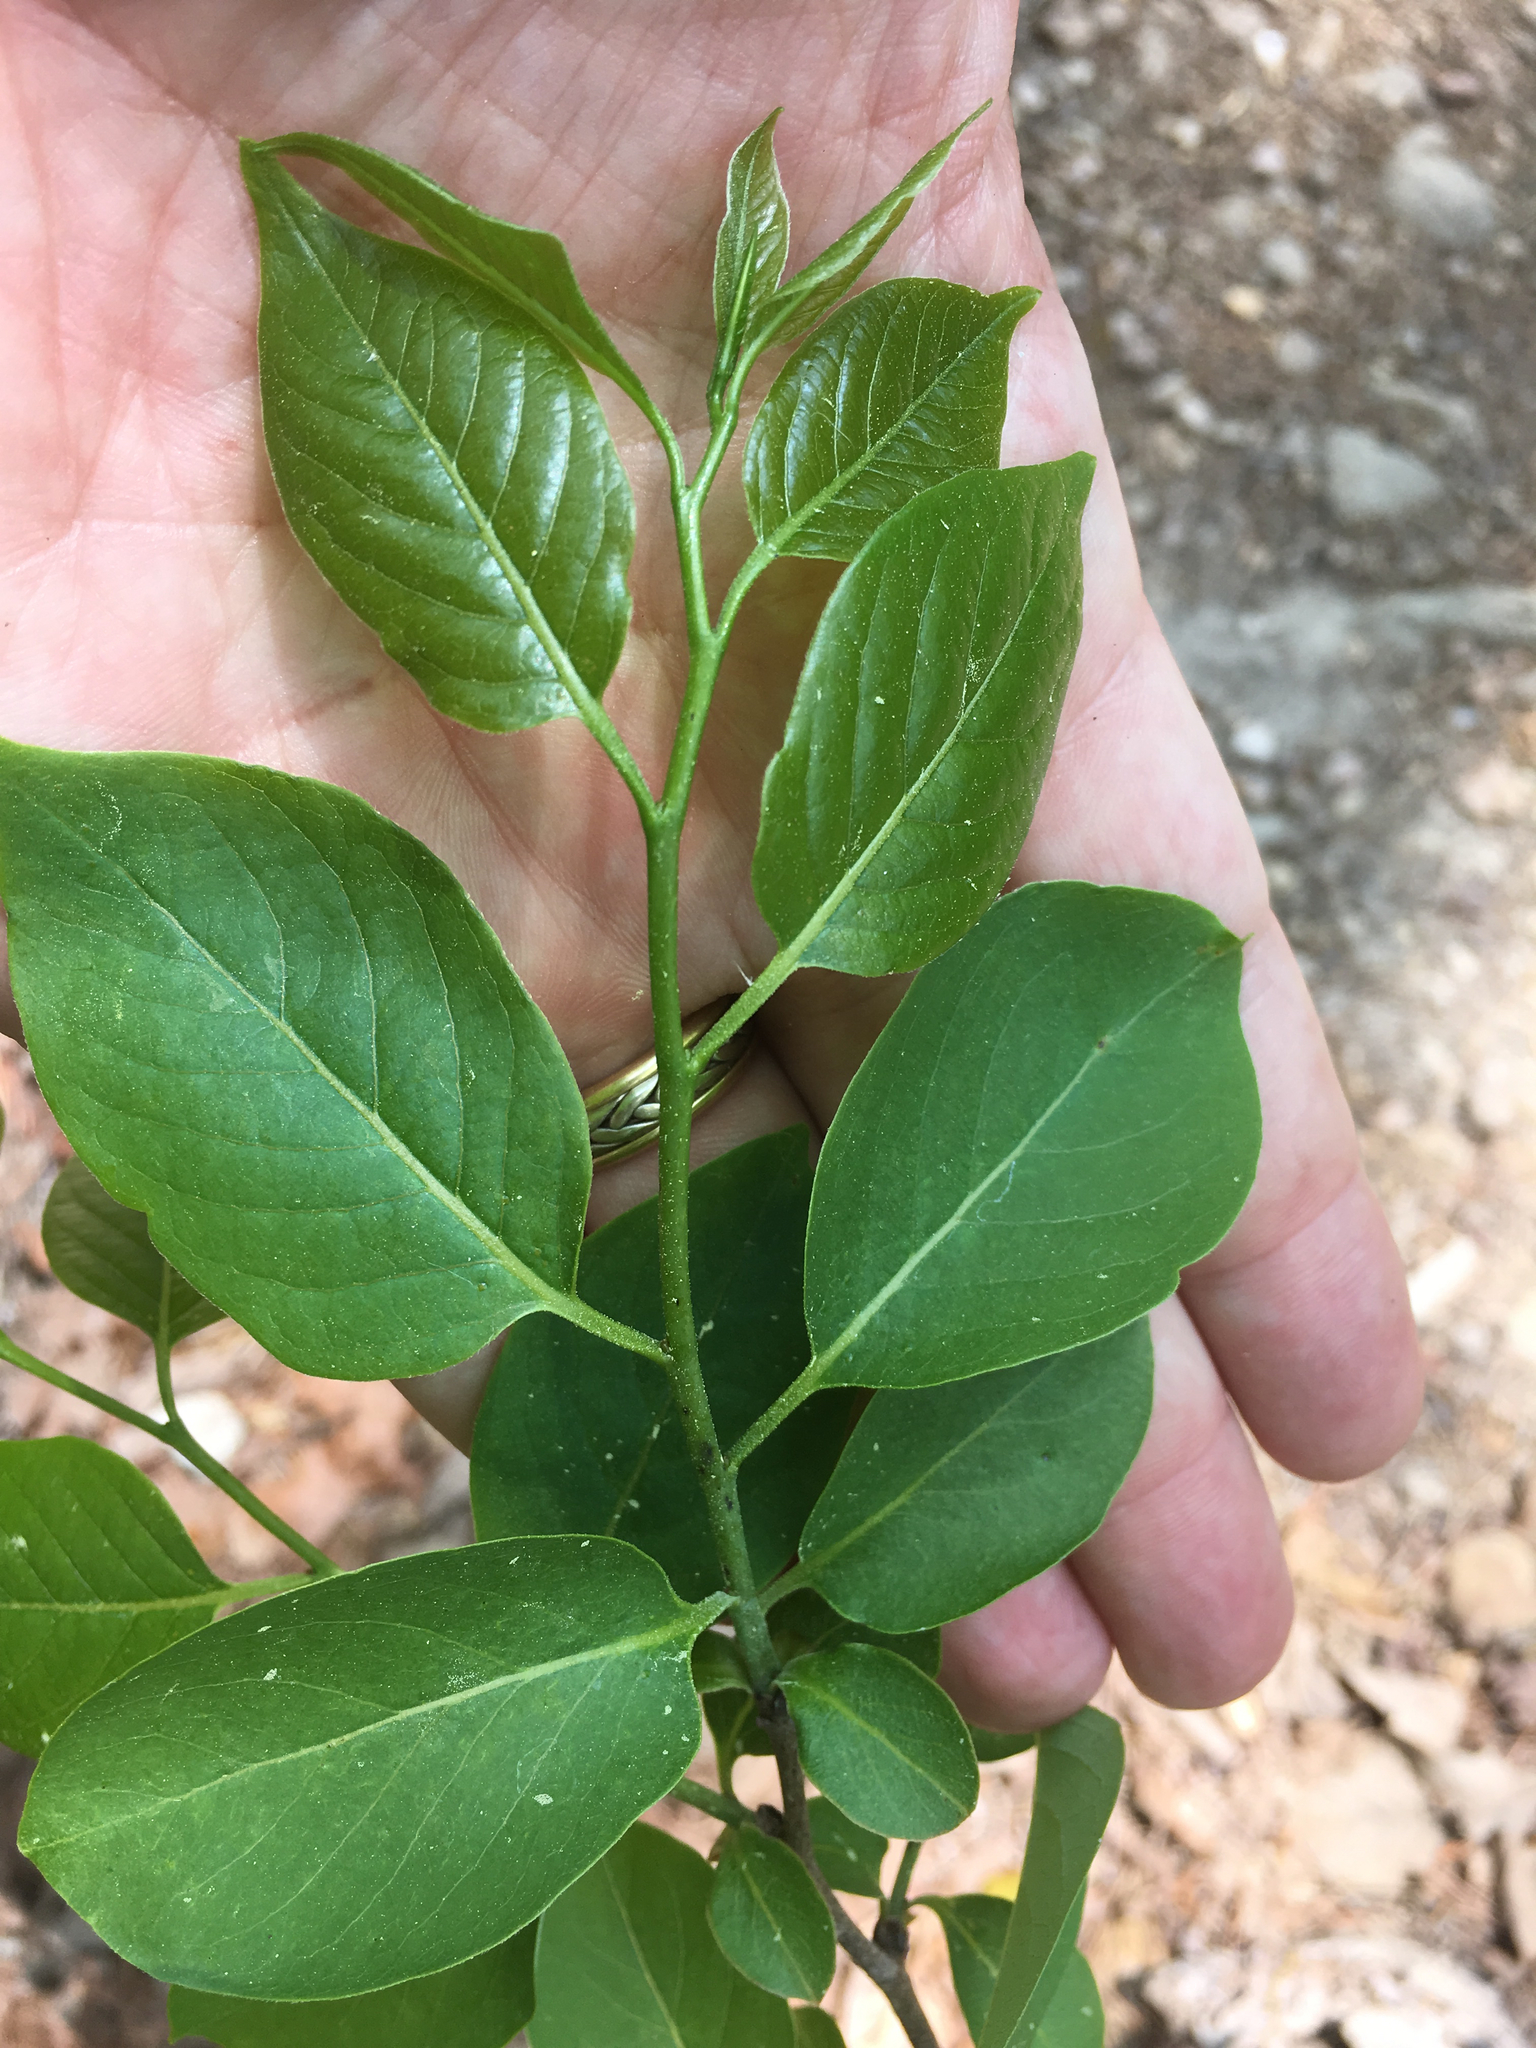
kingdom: Plantae
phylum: Tracheophyta
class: Magnoliopsida
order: Ericales
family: Ebenaceae
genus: Diospyros
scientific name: Diospyros virginiana
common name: Persimmon
